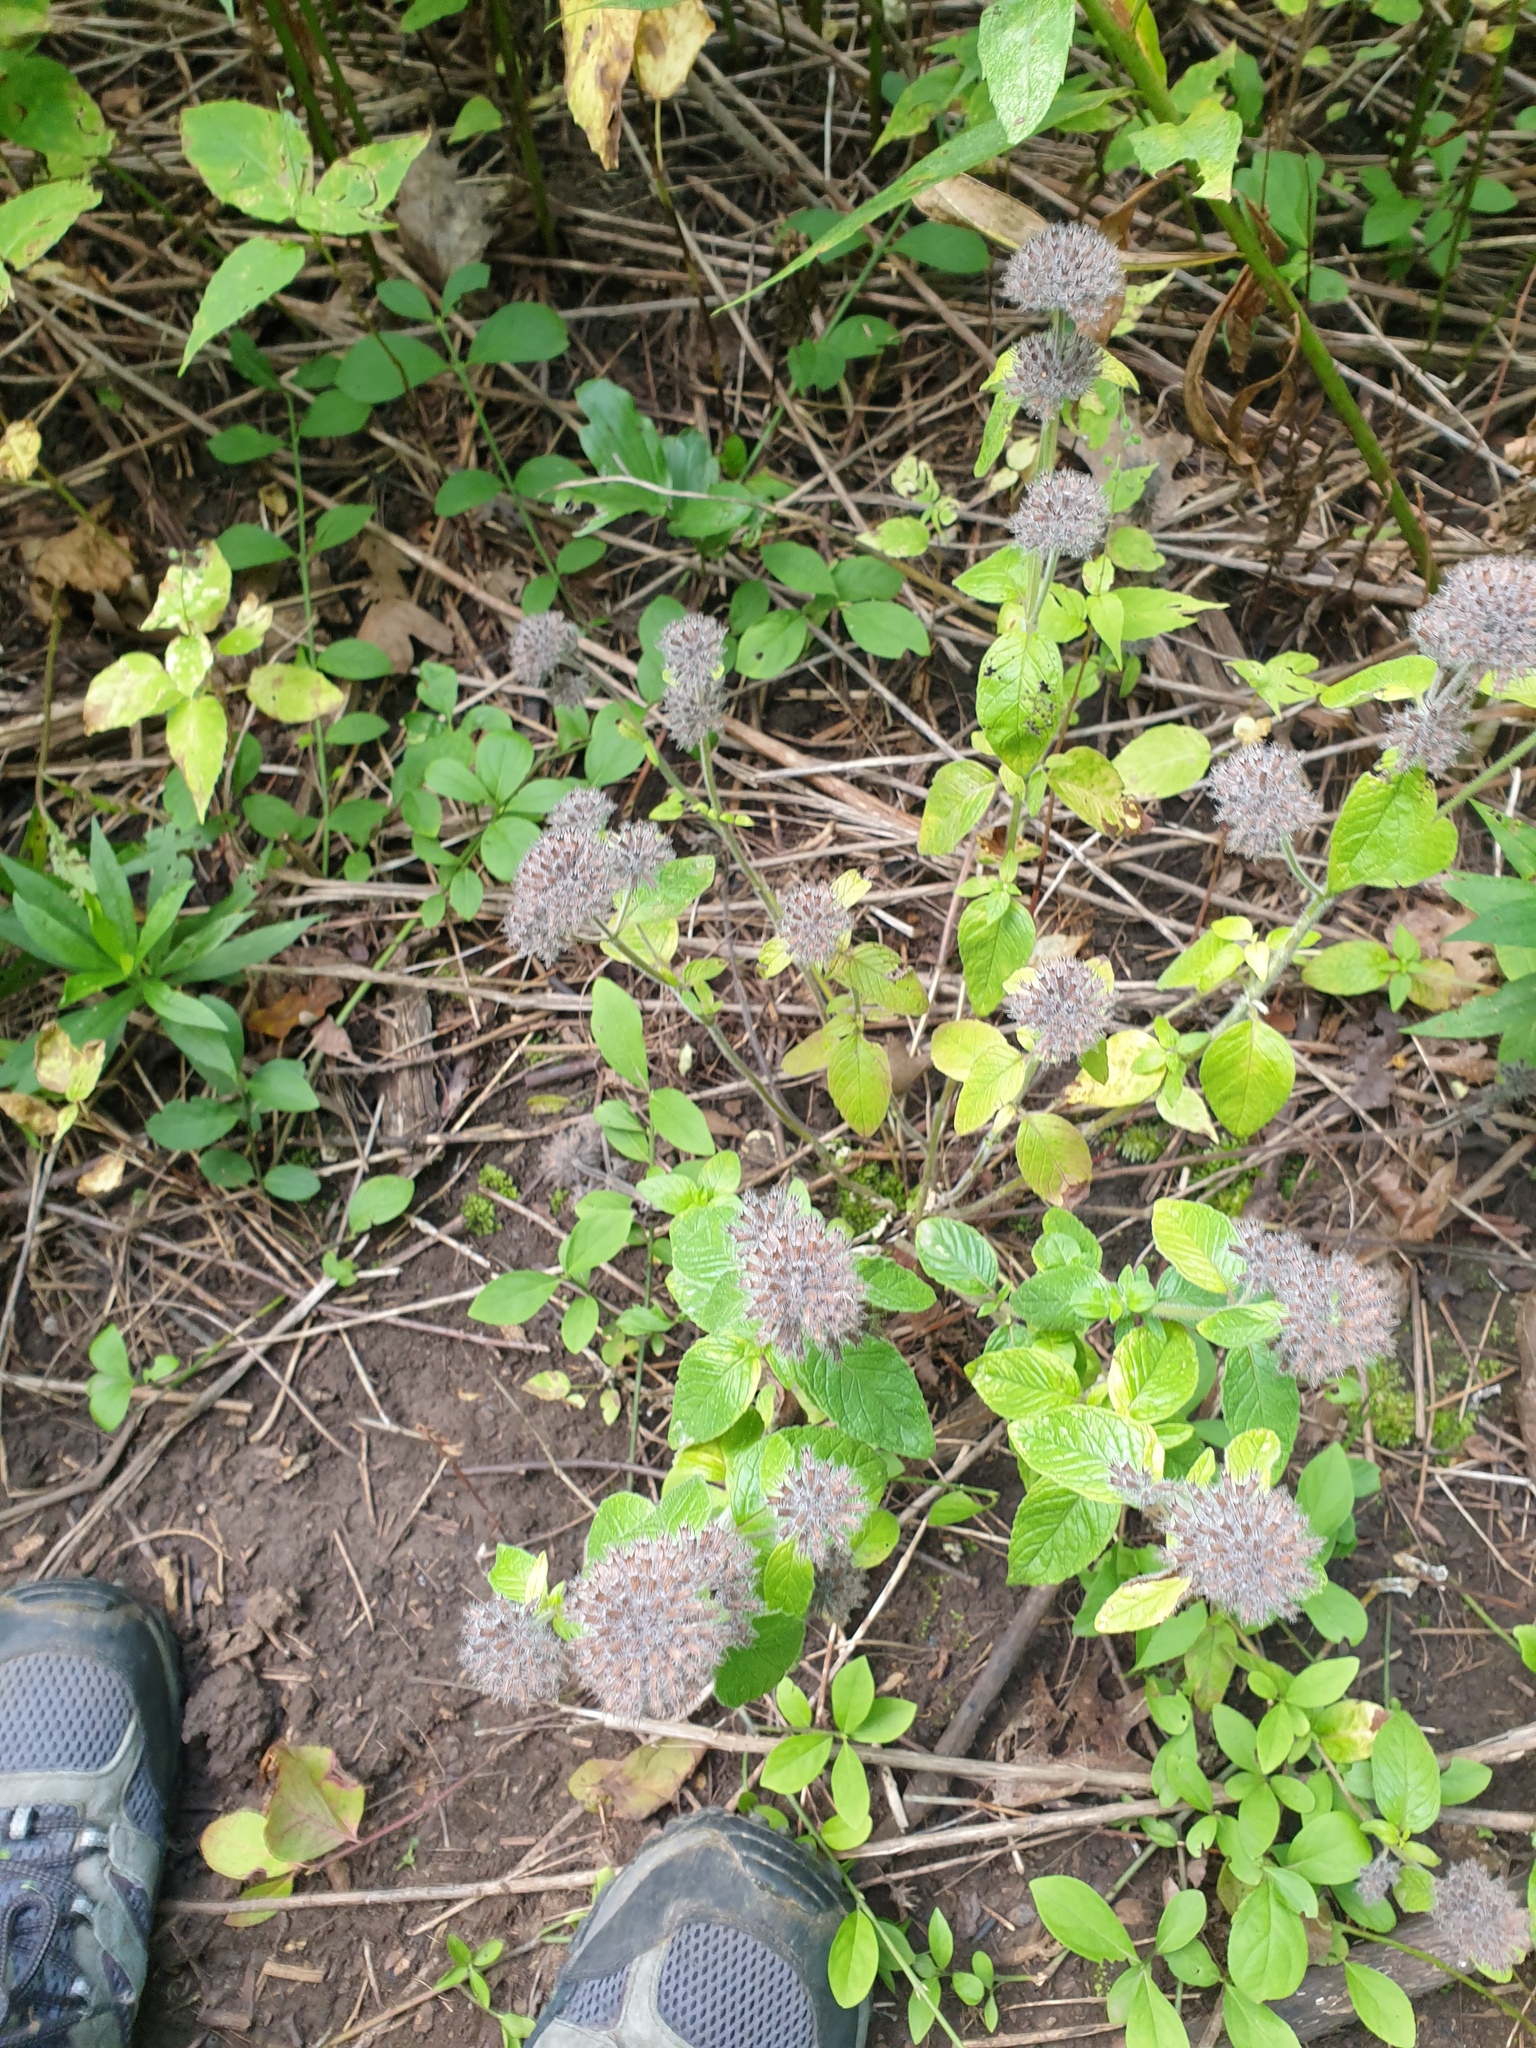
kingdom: Plantae
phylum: Tracheophyta
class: Magnoliopsida
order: Lamiales
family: Lamiaceae
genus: Clinopodium
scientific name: Clinopodium vulgare
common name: Wild basil
